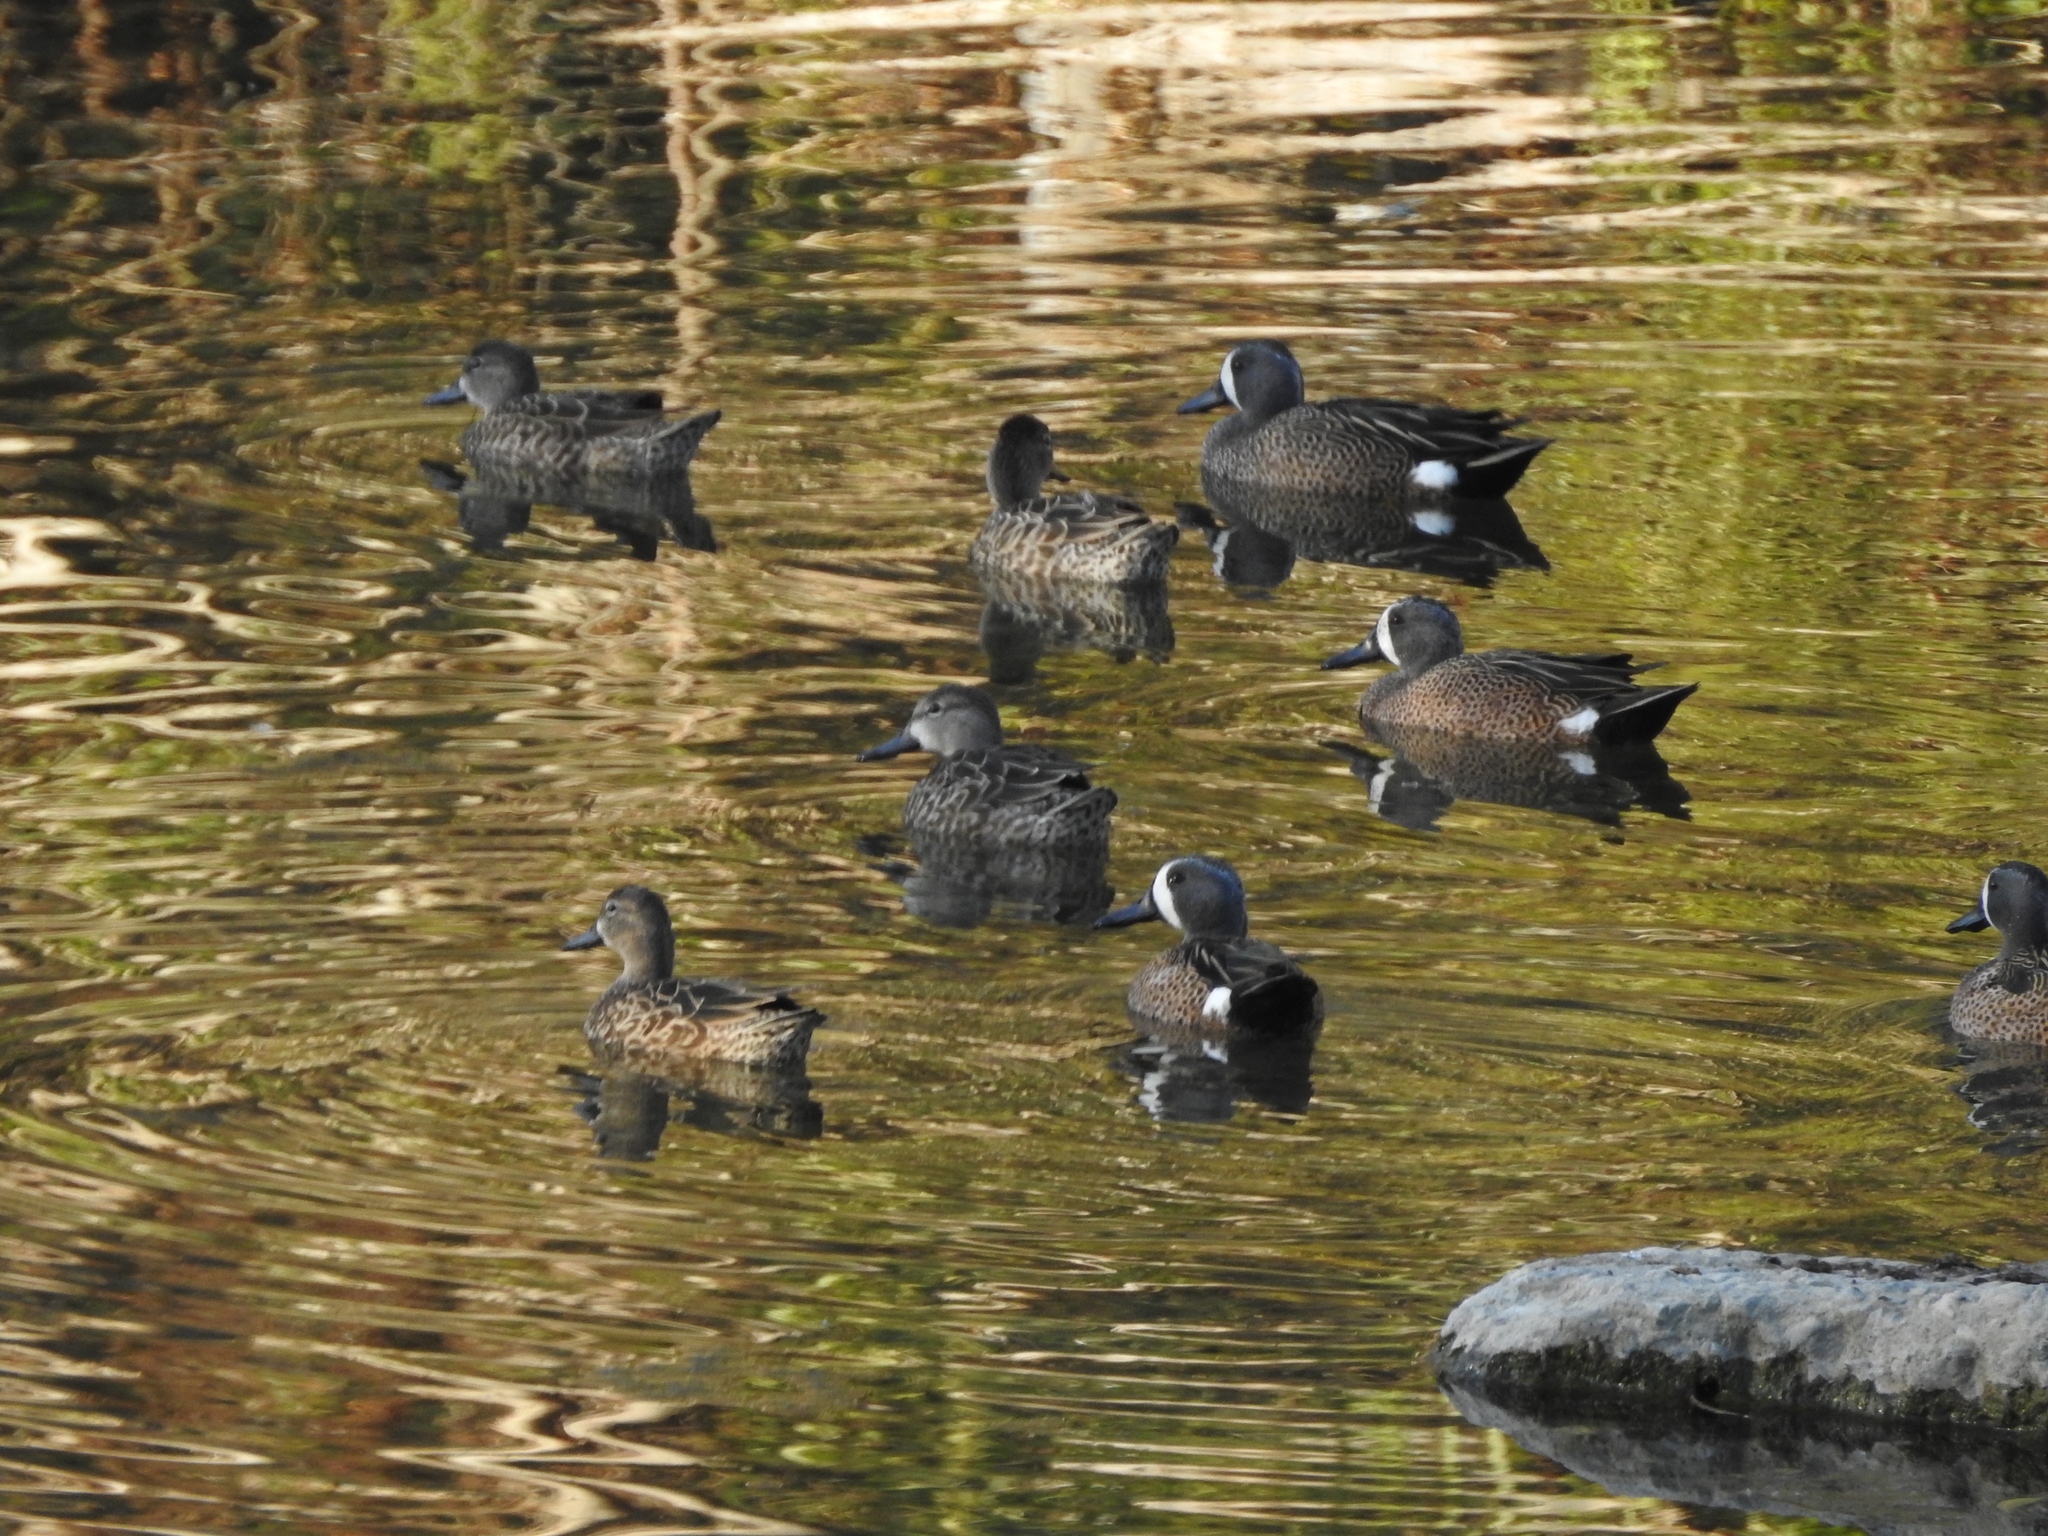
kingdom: Animalia
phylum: Chordata
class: Aves
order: Anseriformes
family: Anatidae
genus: Spatula
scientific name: Spatula discors
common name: Blue-winged teal
